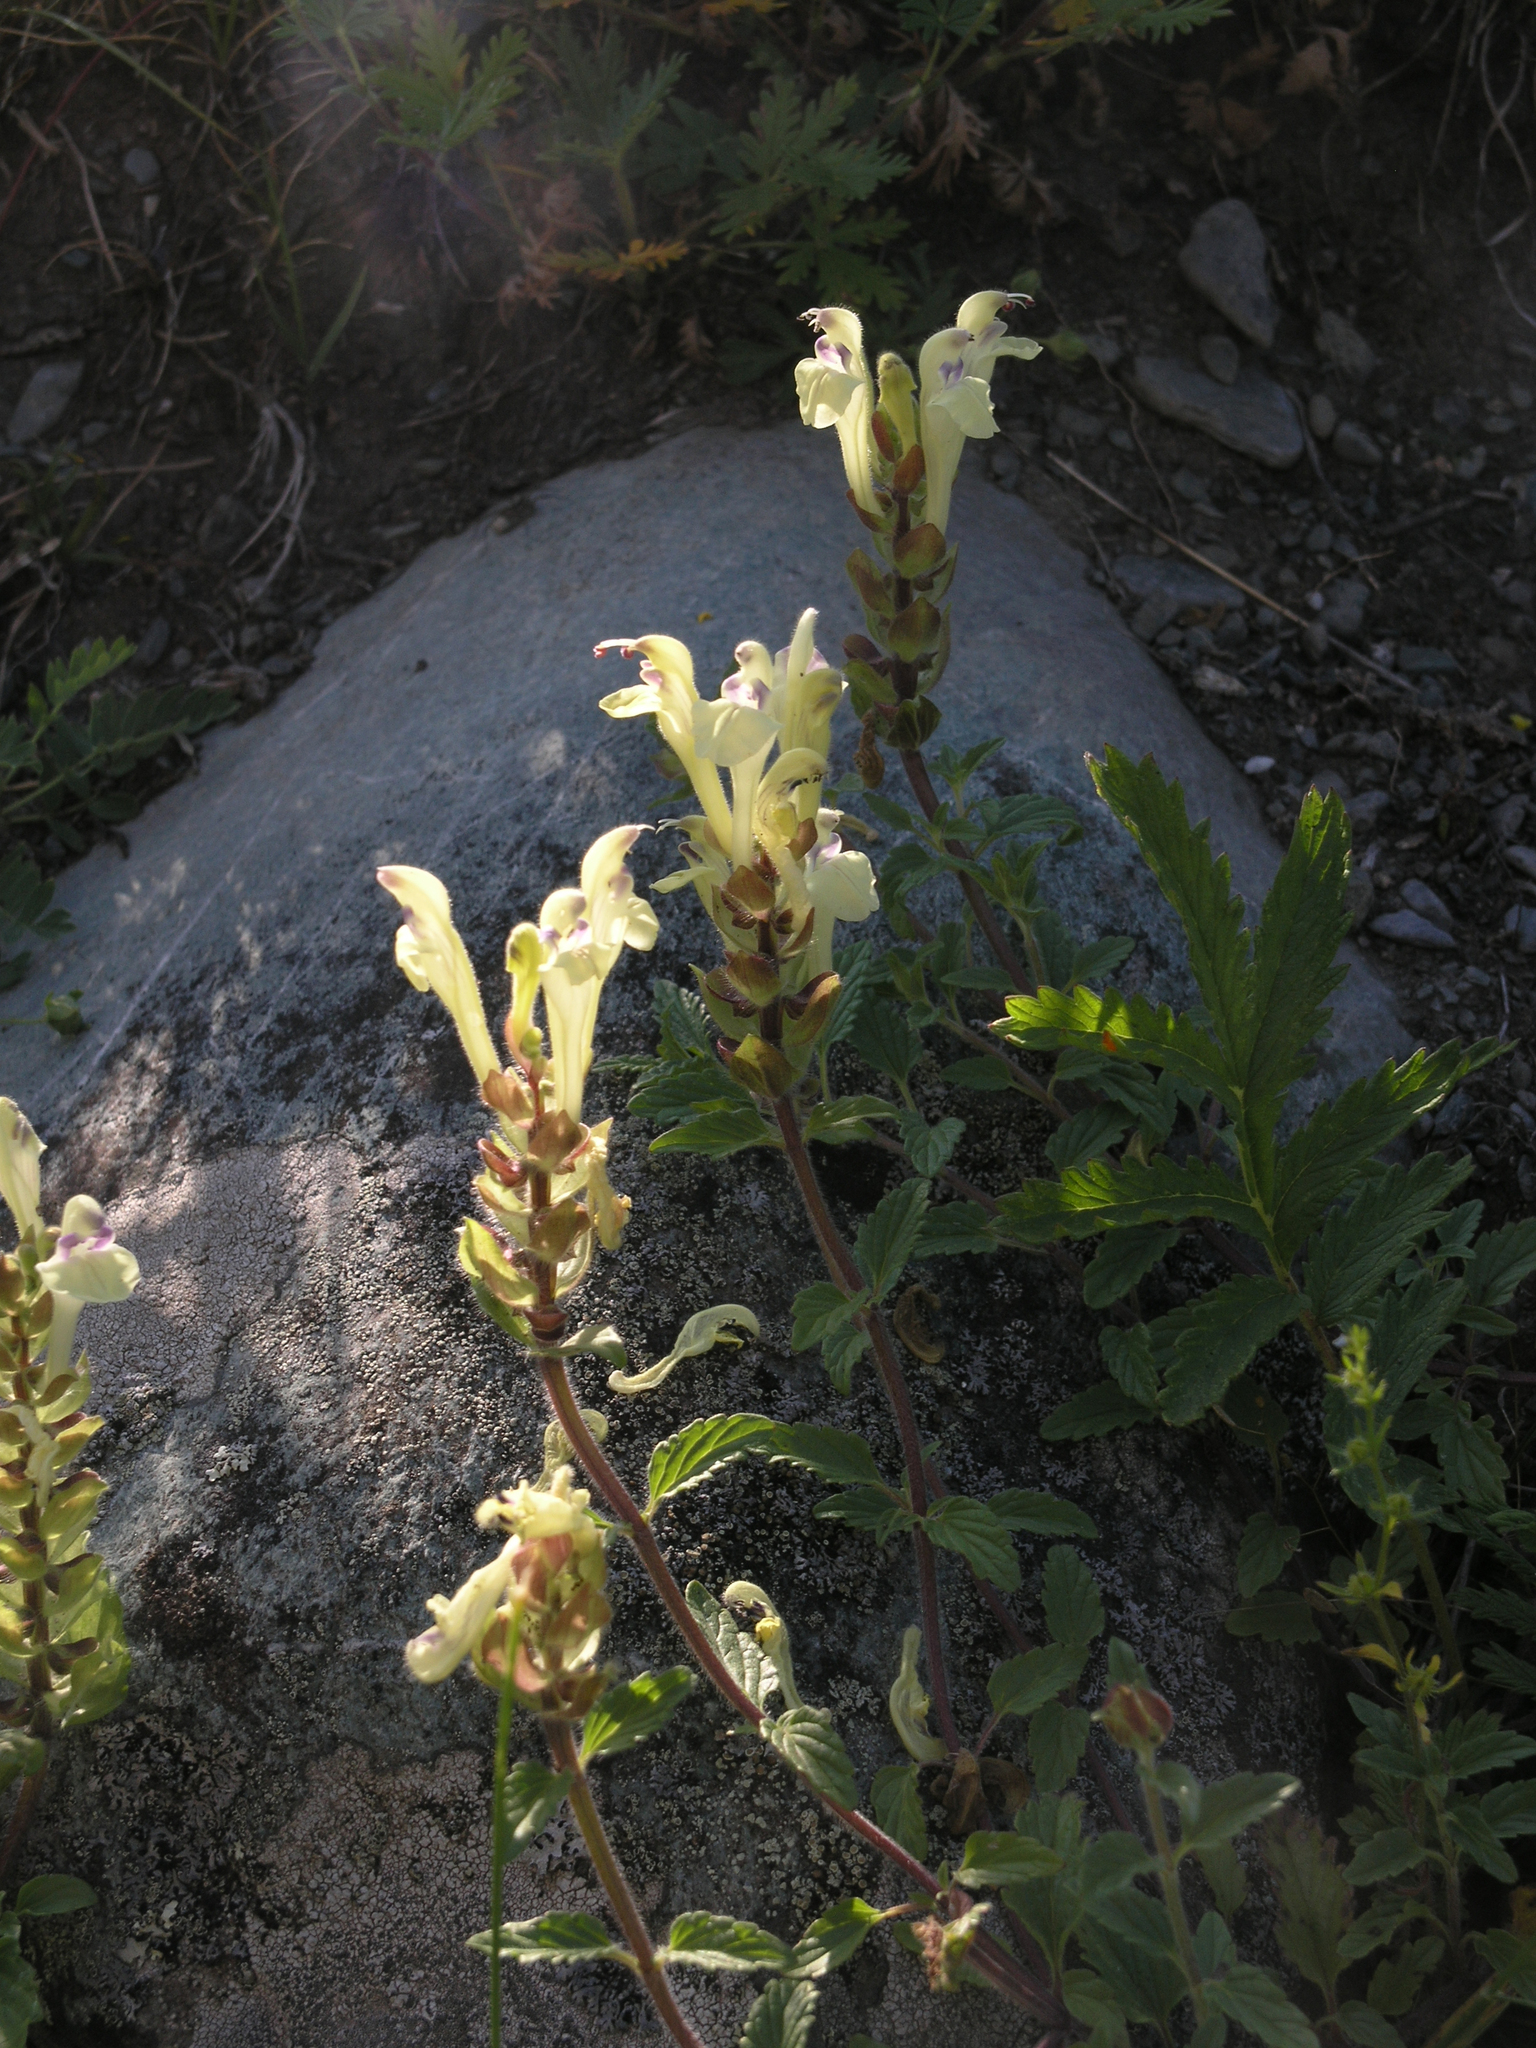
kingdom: Plantae
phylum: Tracheophyta
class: Magnoliopsida
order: Lamiales
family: Lamiaceae
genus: Scutellaria
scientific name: Scutellaria supina
